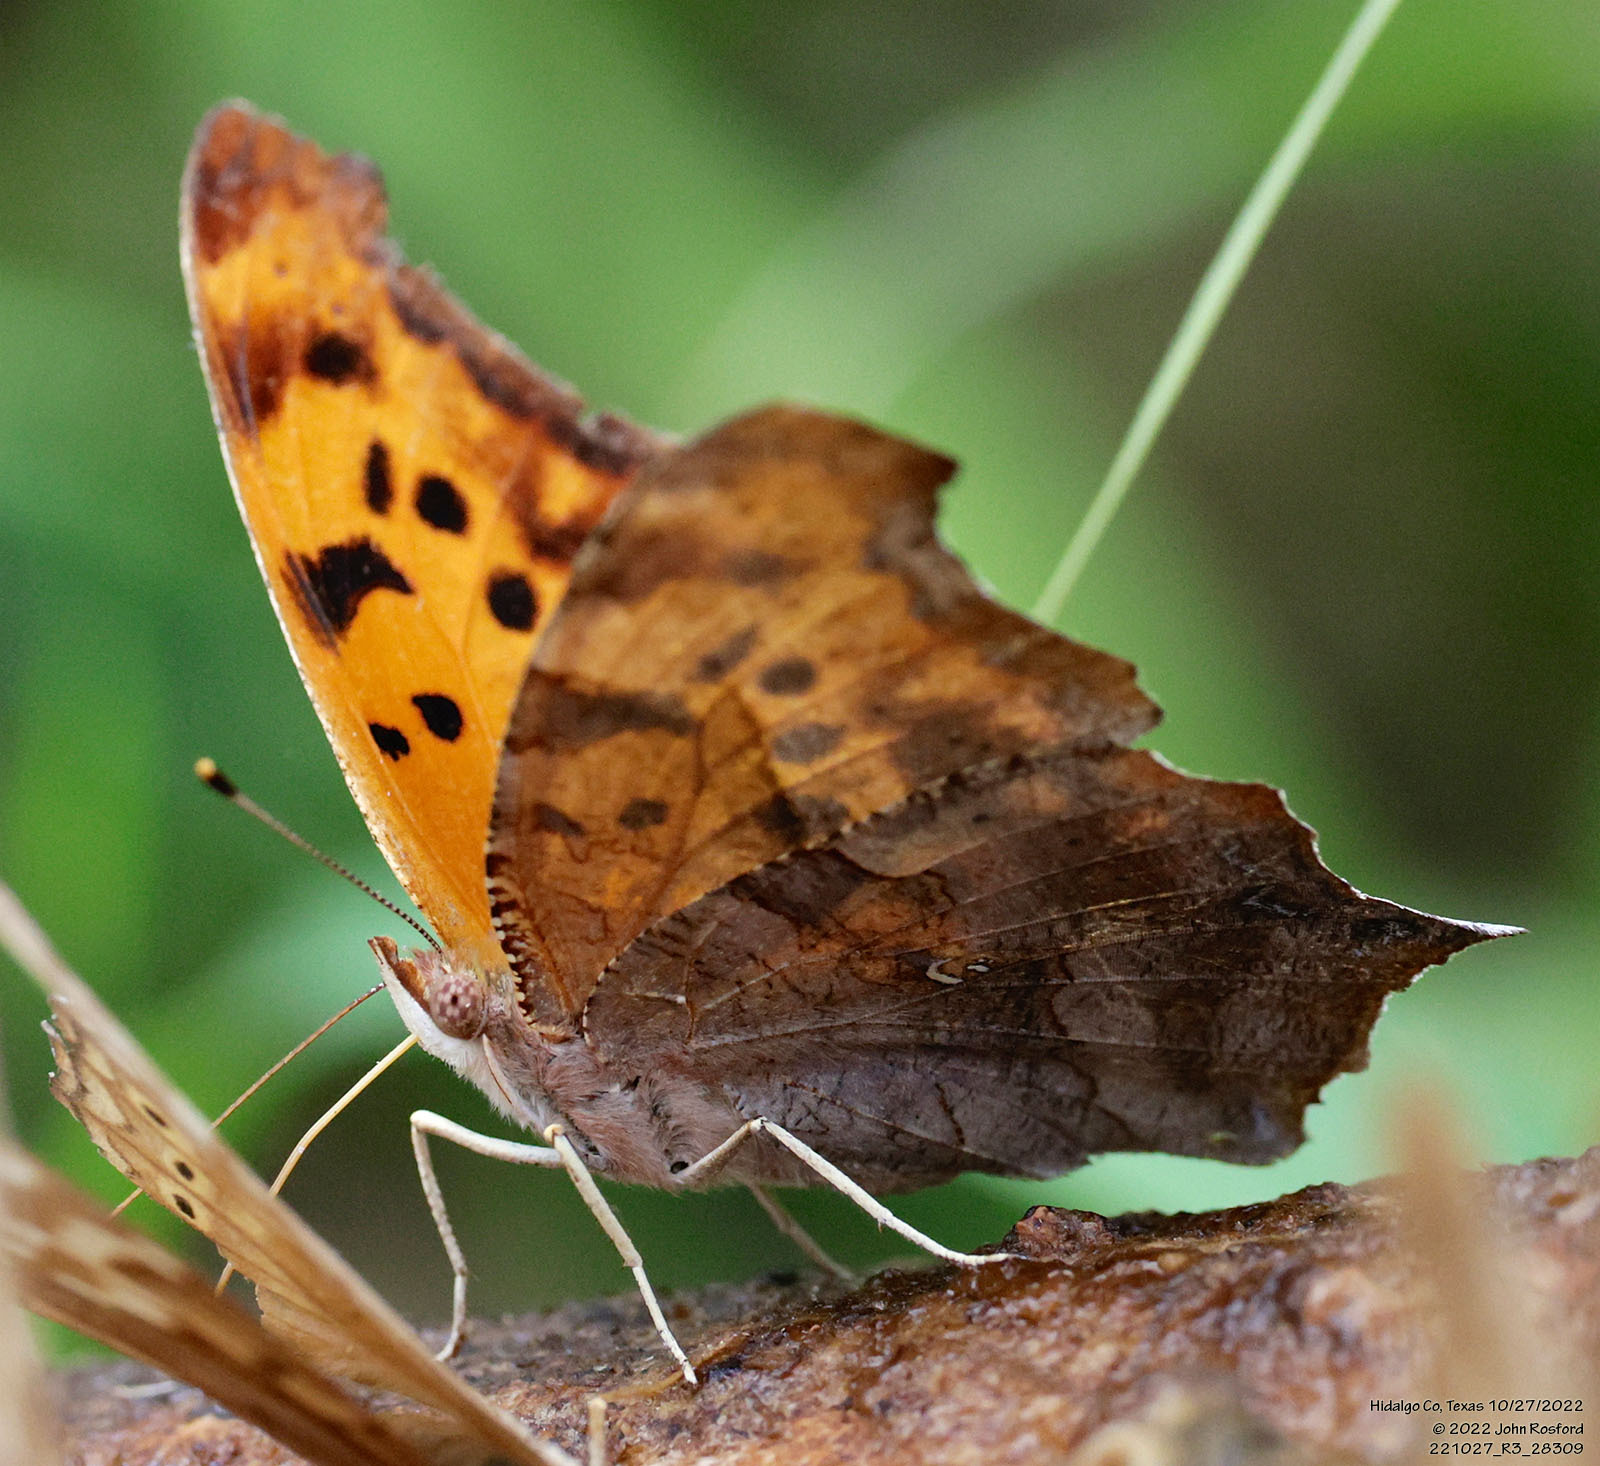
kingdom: Animalia
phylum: Arthropoda
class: Insecta
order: Lepidoptera
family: Nymphalidae
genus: Polygonia
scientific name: Polygonia interrogationis
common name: Question mark
